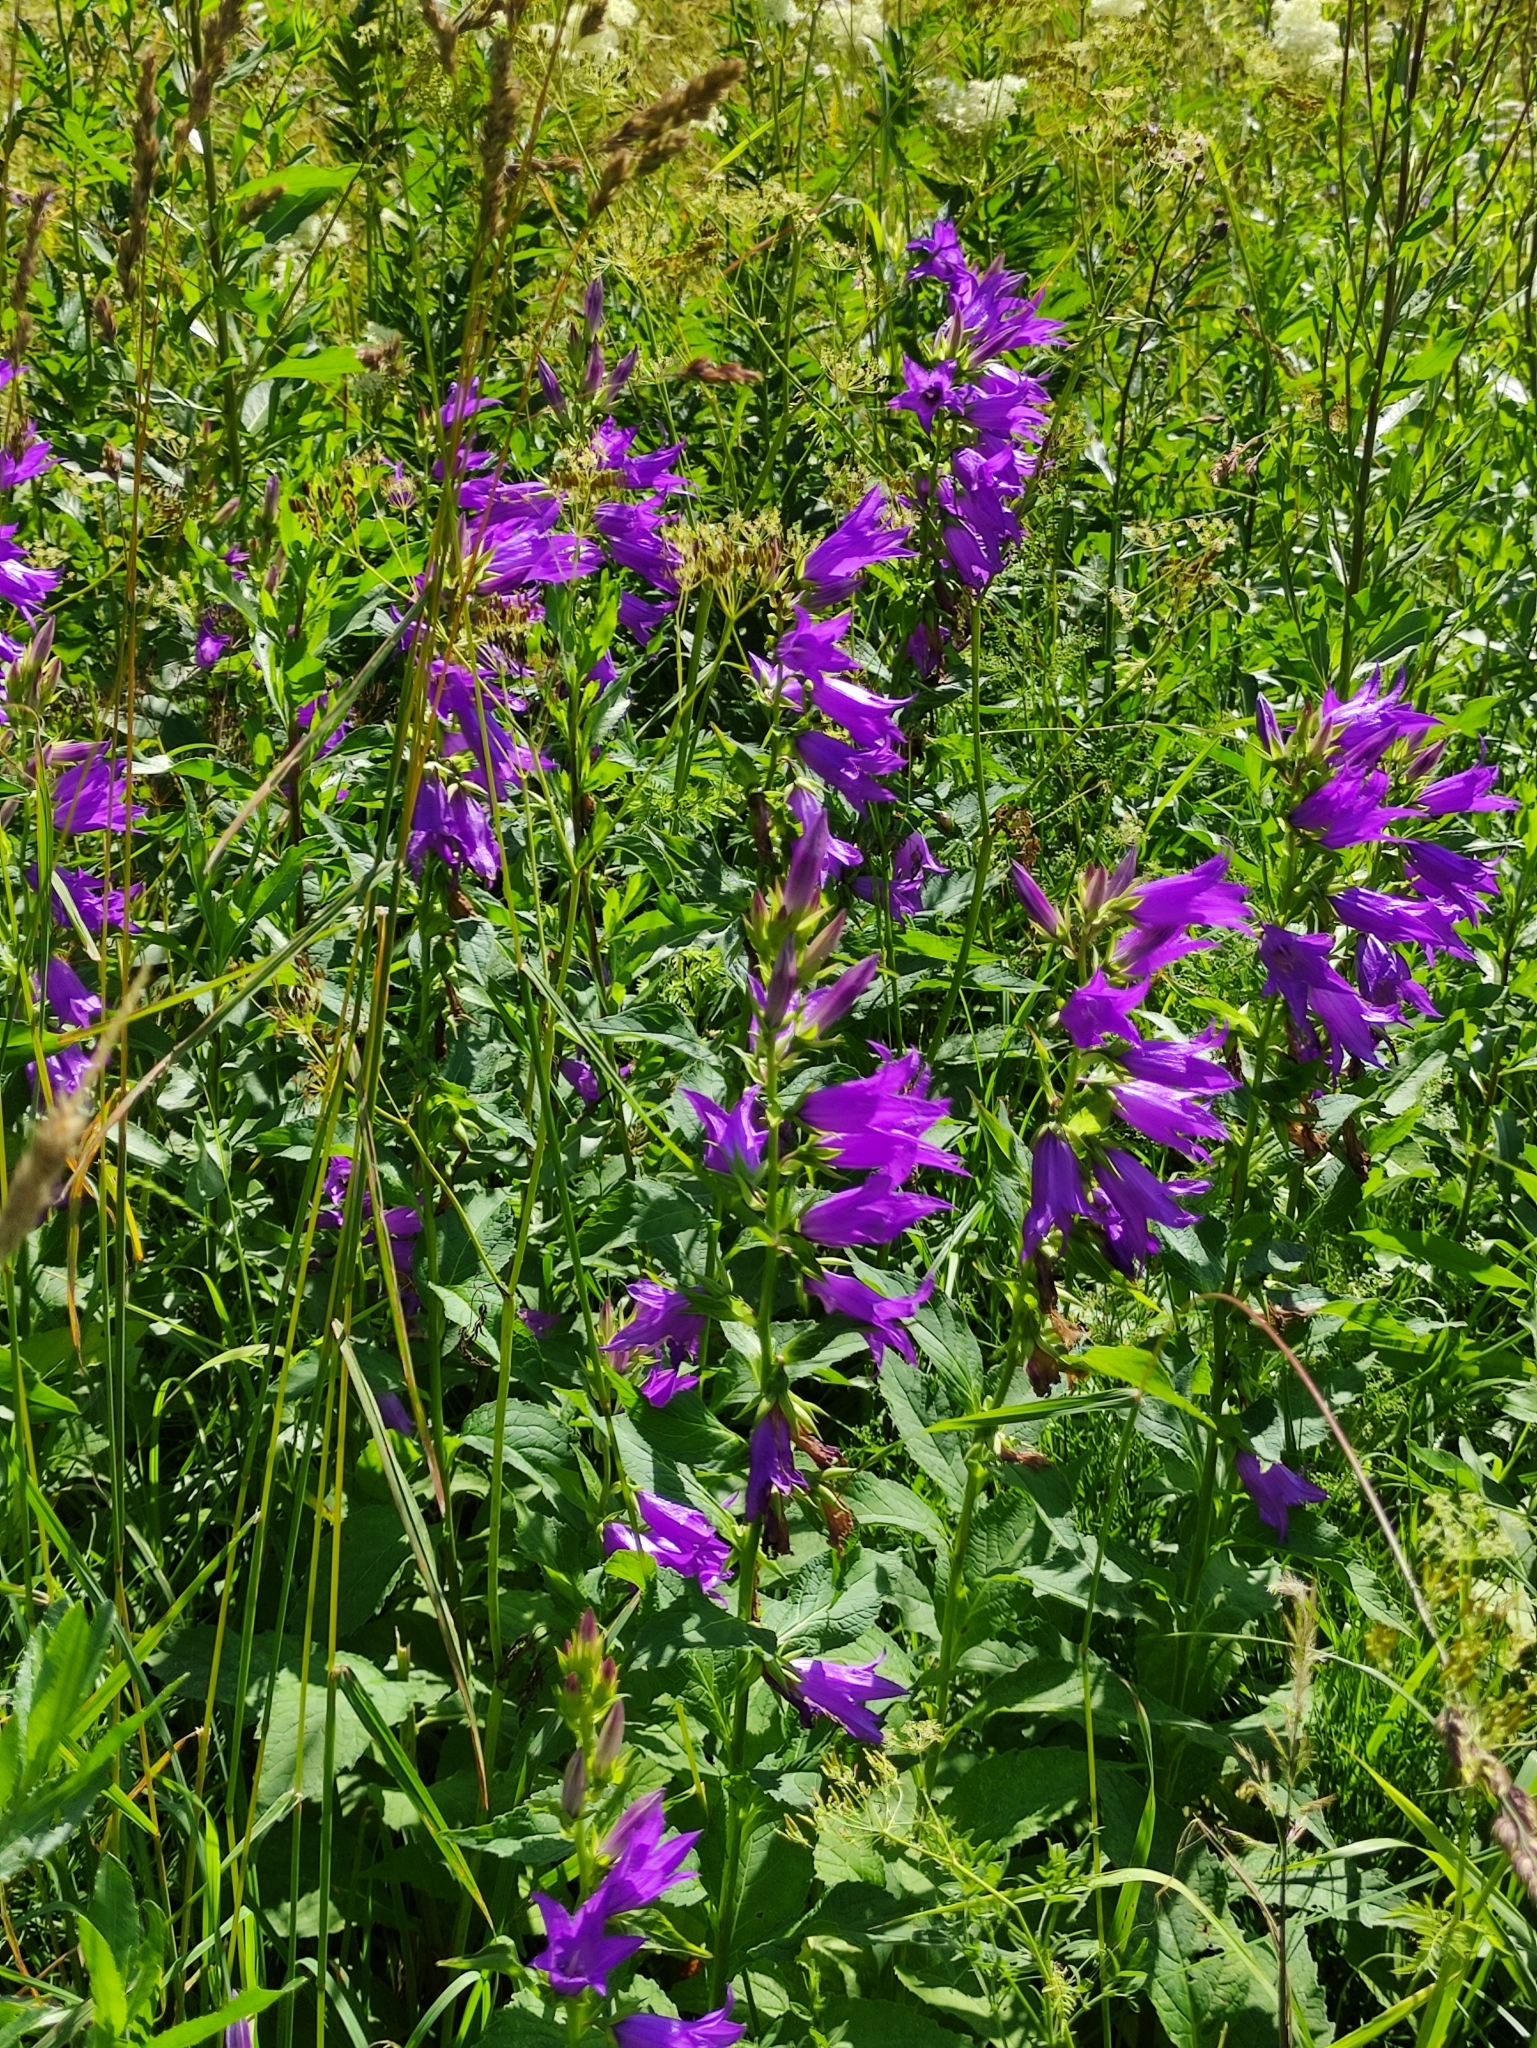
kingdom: Plantae
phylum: Tracheophyta
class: Magnoliopsida
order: Asterales
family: Campanulaceae
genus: Campanula
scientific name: Campanula latifolia
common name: Giant bellflower
